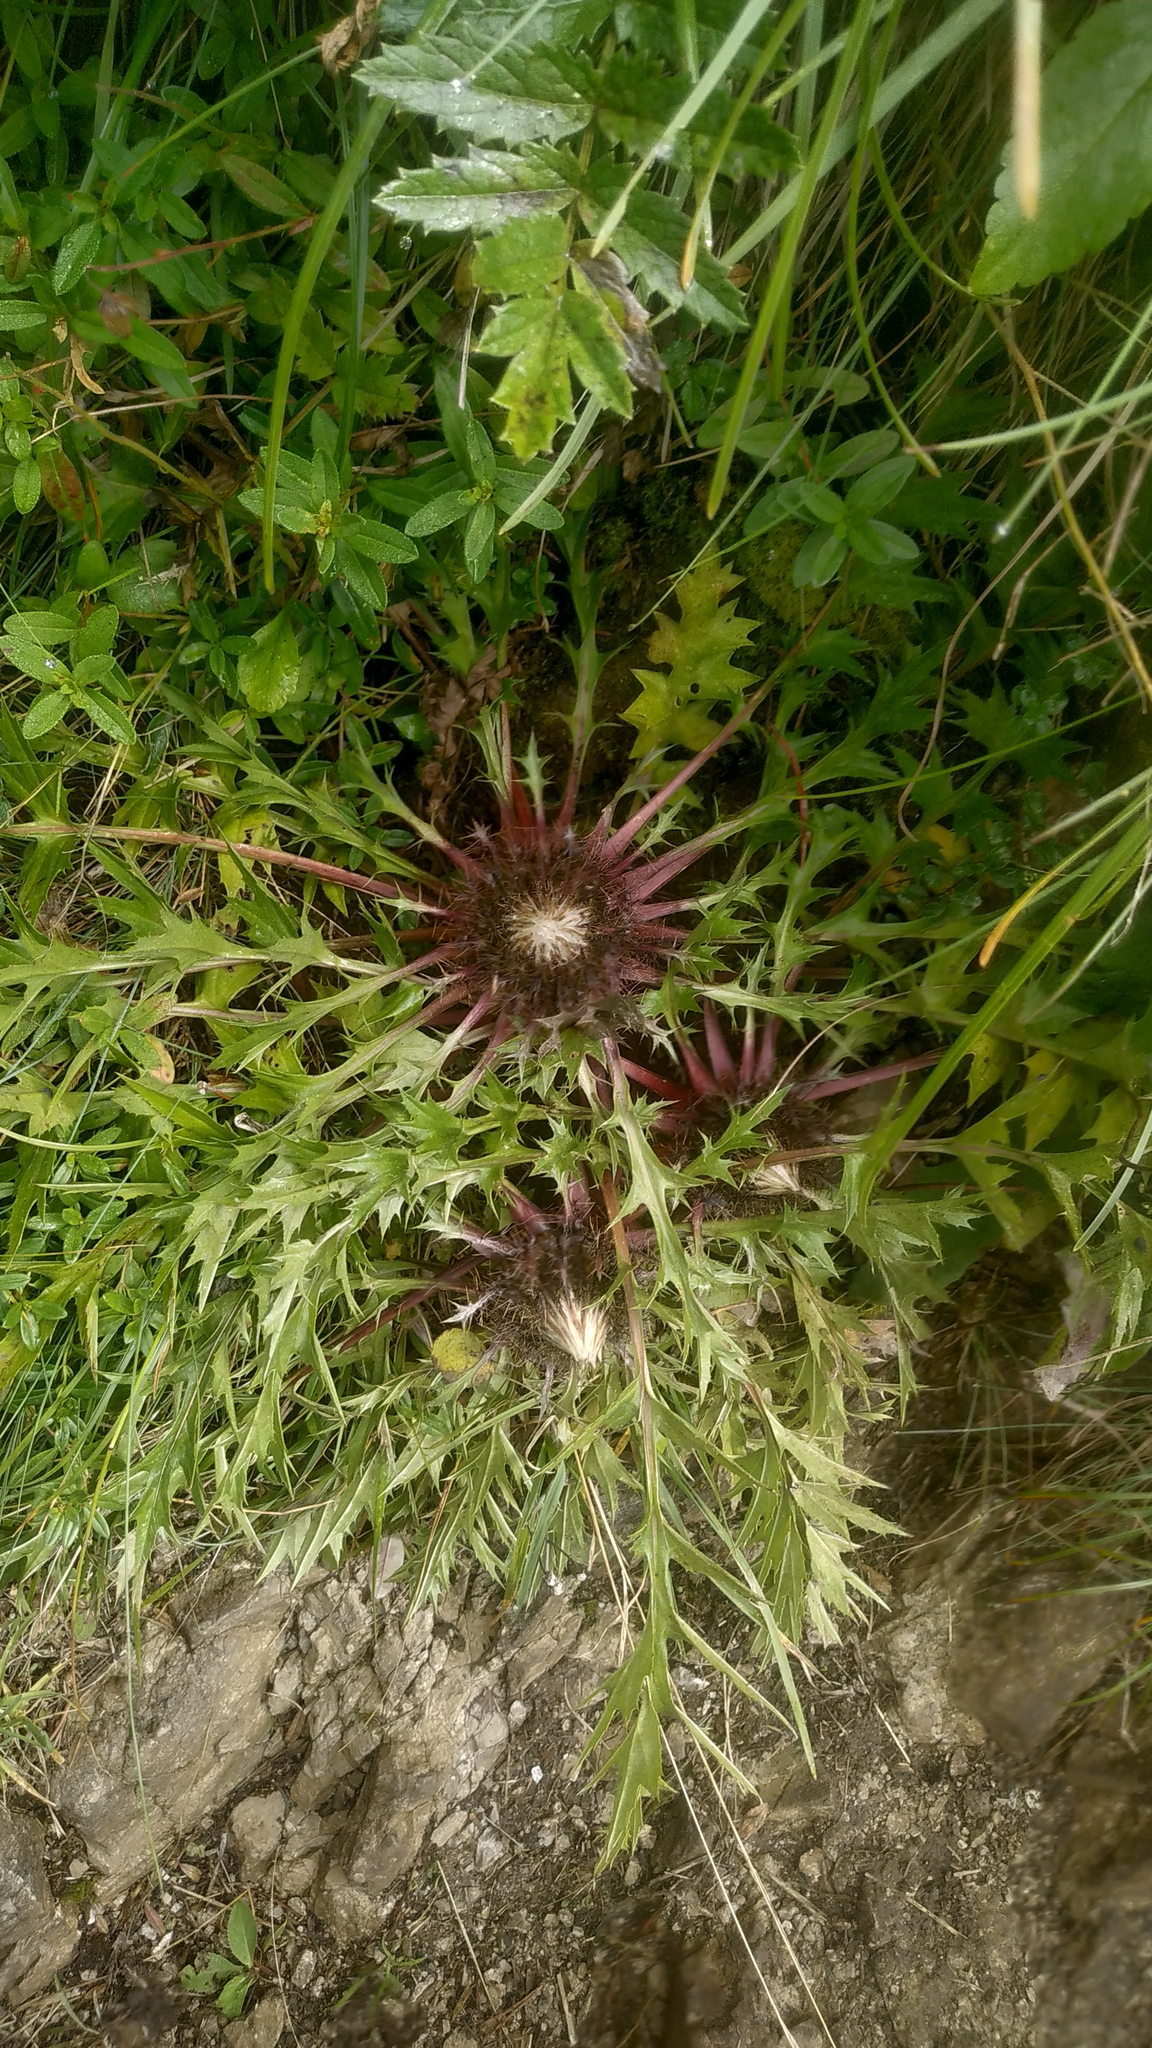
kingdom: Plantae
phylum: Tracheophyta
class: Magnoliopsida
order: Asterales
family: Asteraceae
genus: Carlina
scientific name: Carlina acaulis
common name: Stemless carline thistle
